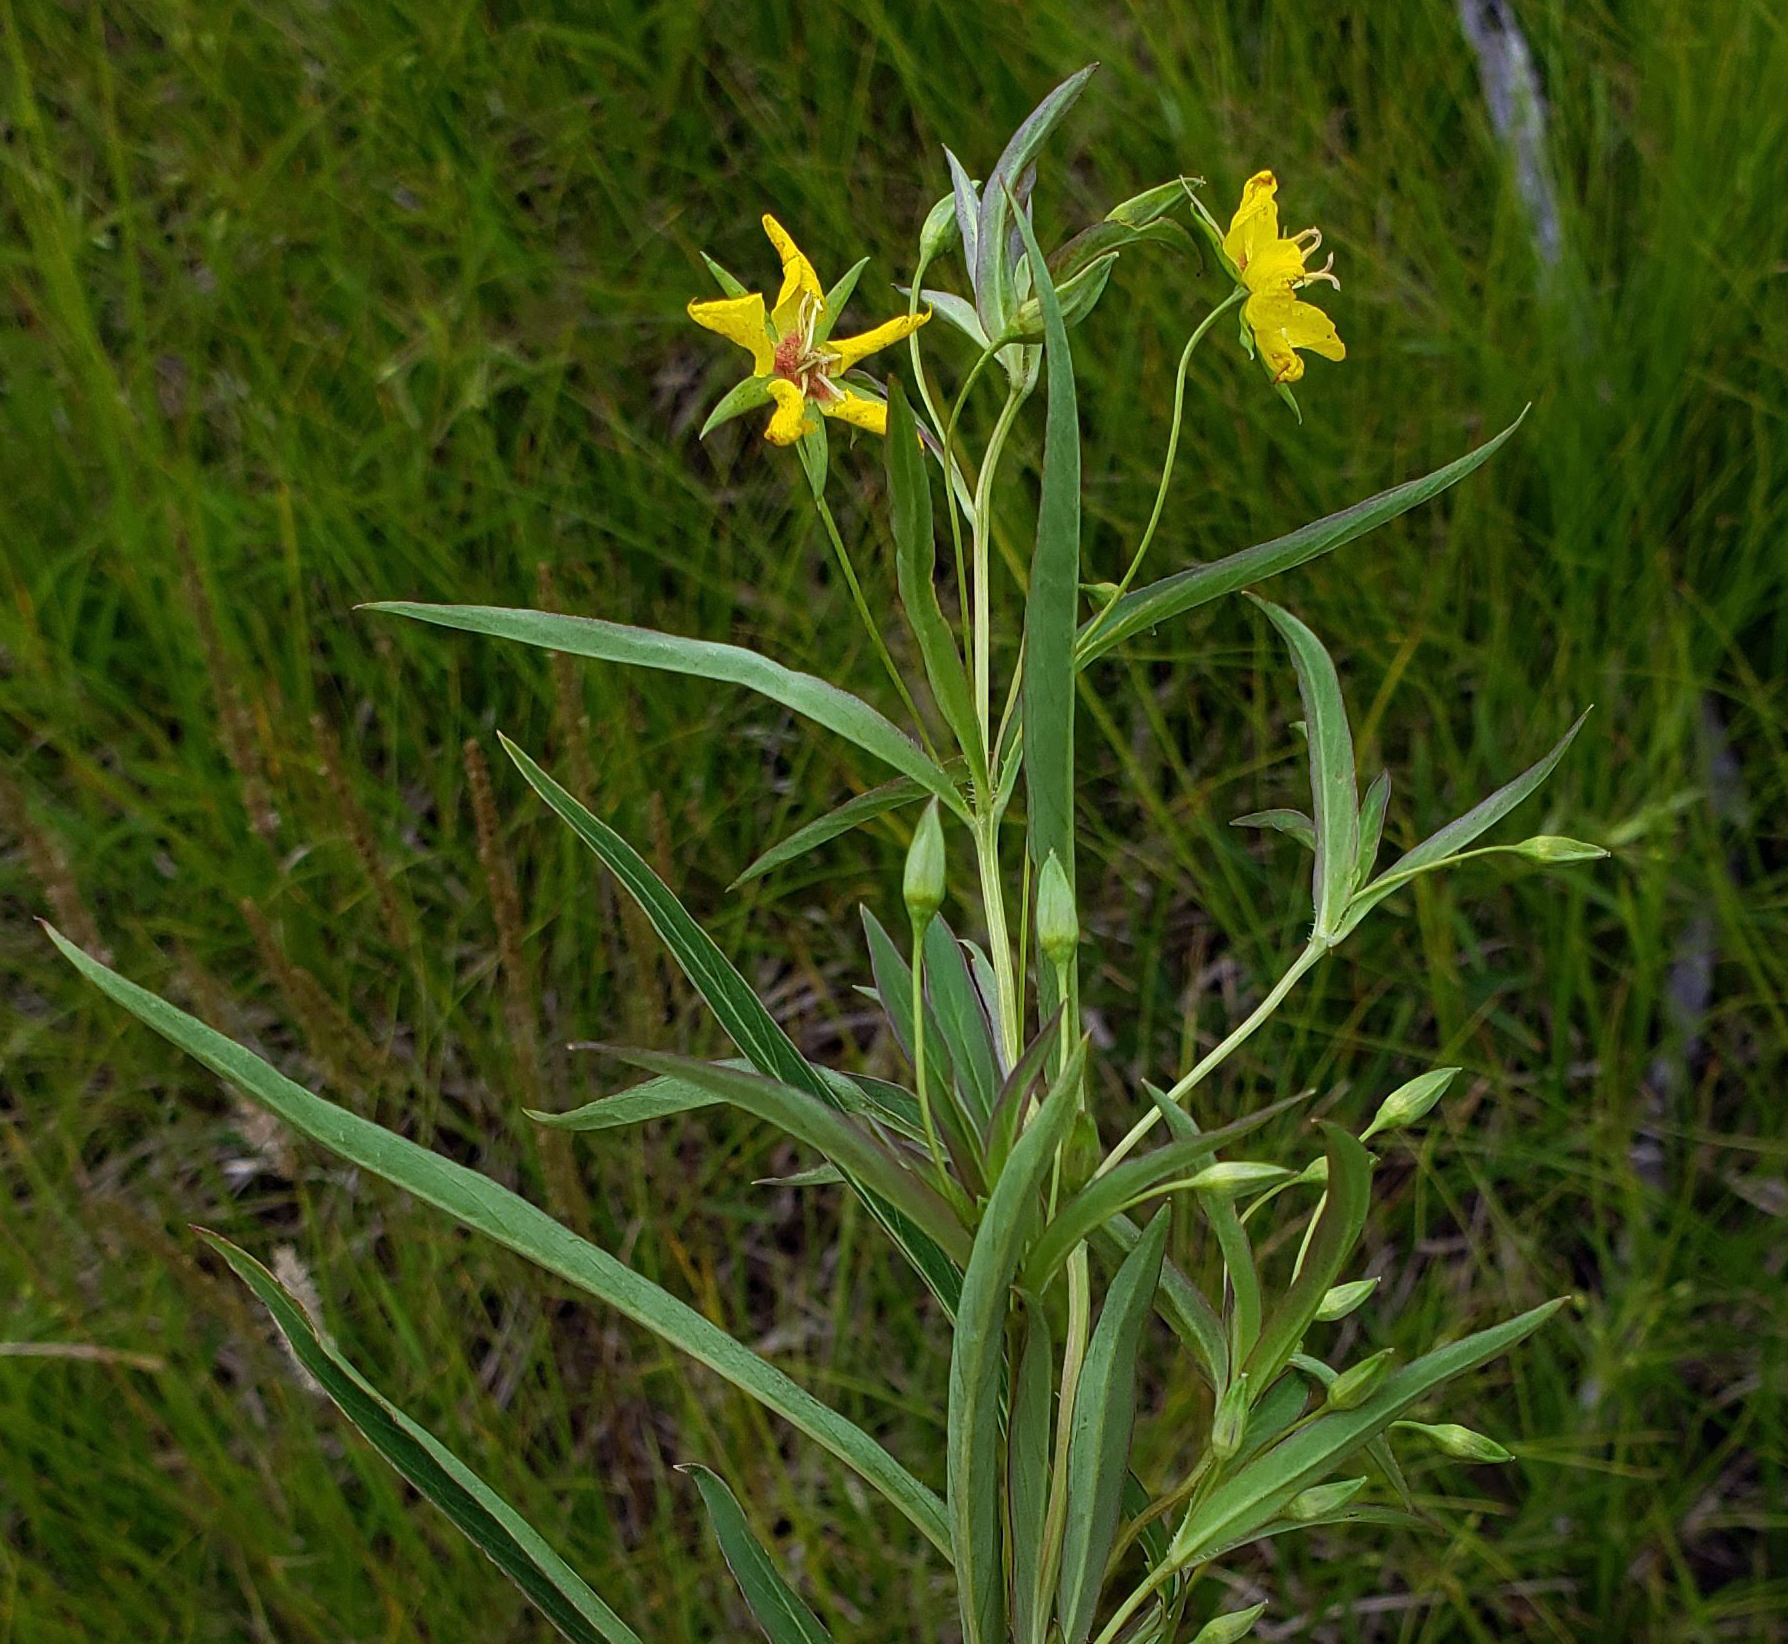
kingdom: Plantae
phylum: Tracheophyta
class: Magnoliopsida
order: Ericales
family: Primulaceae
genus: Lysimachia
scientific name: Lysimachia lanceolata
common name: Lance-leaved loosestrife
